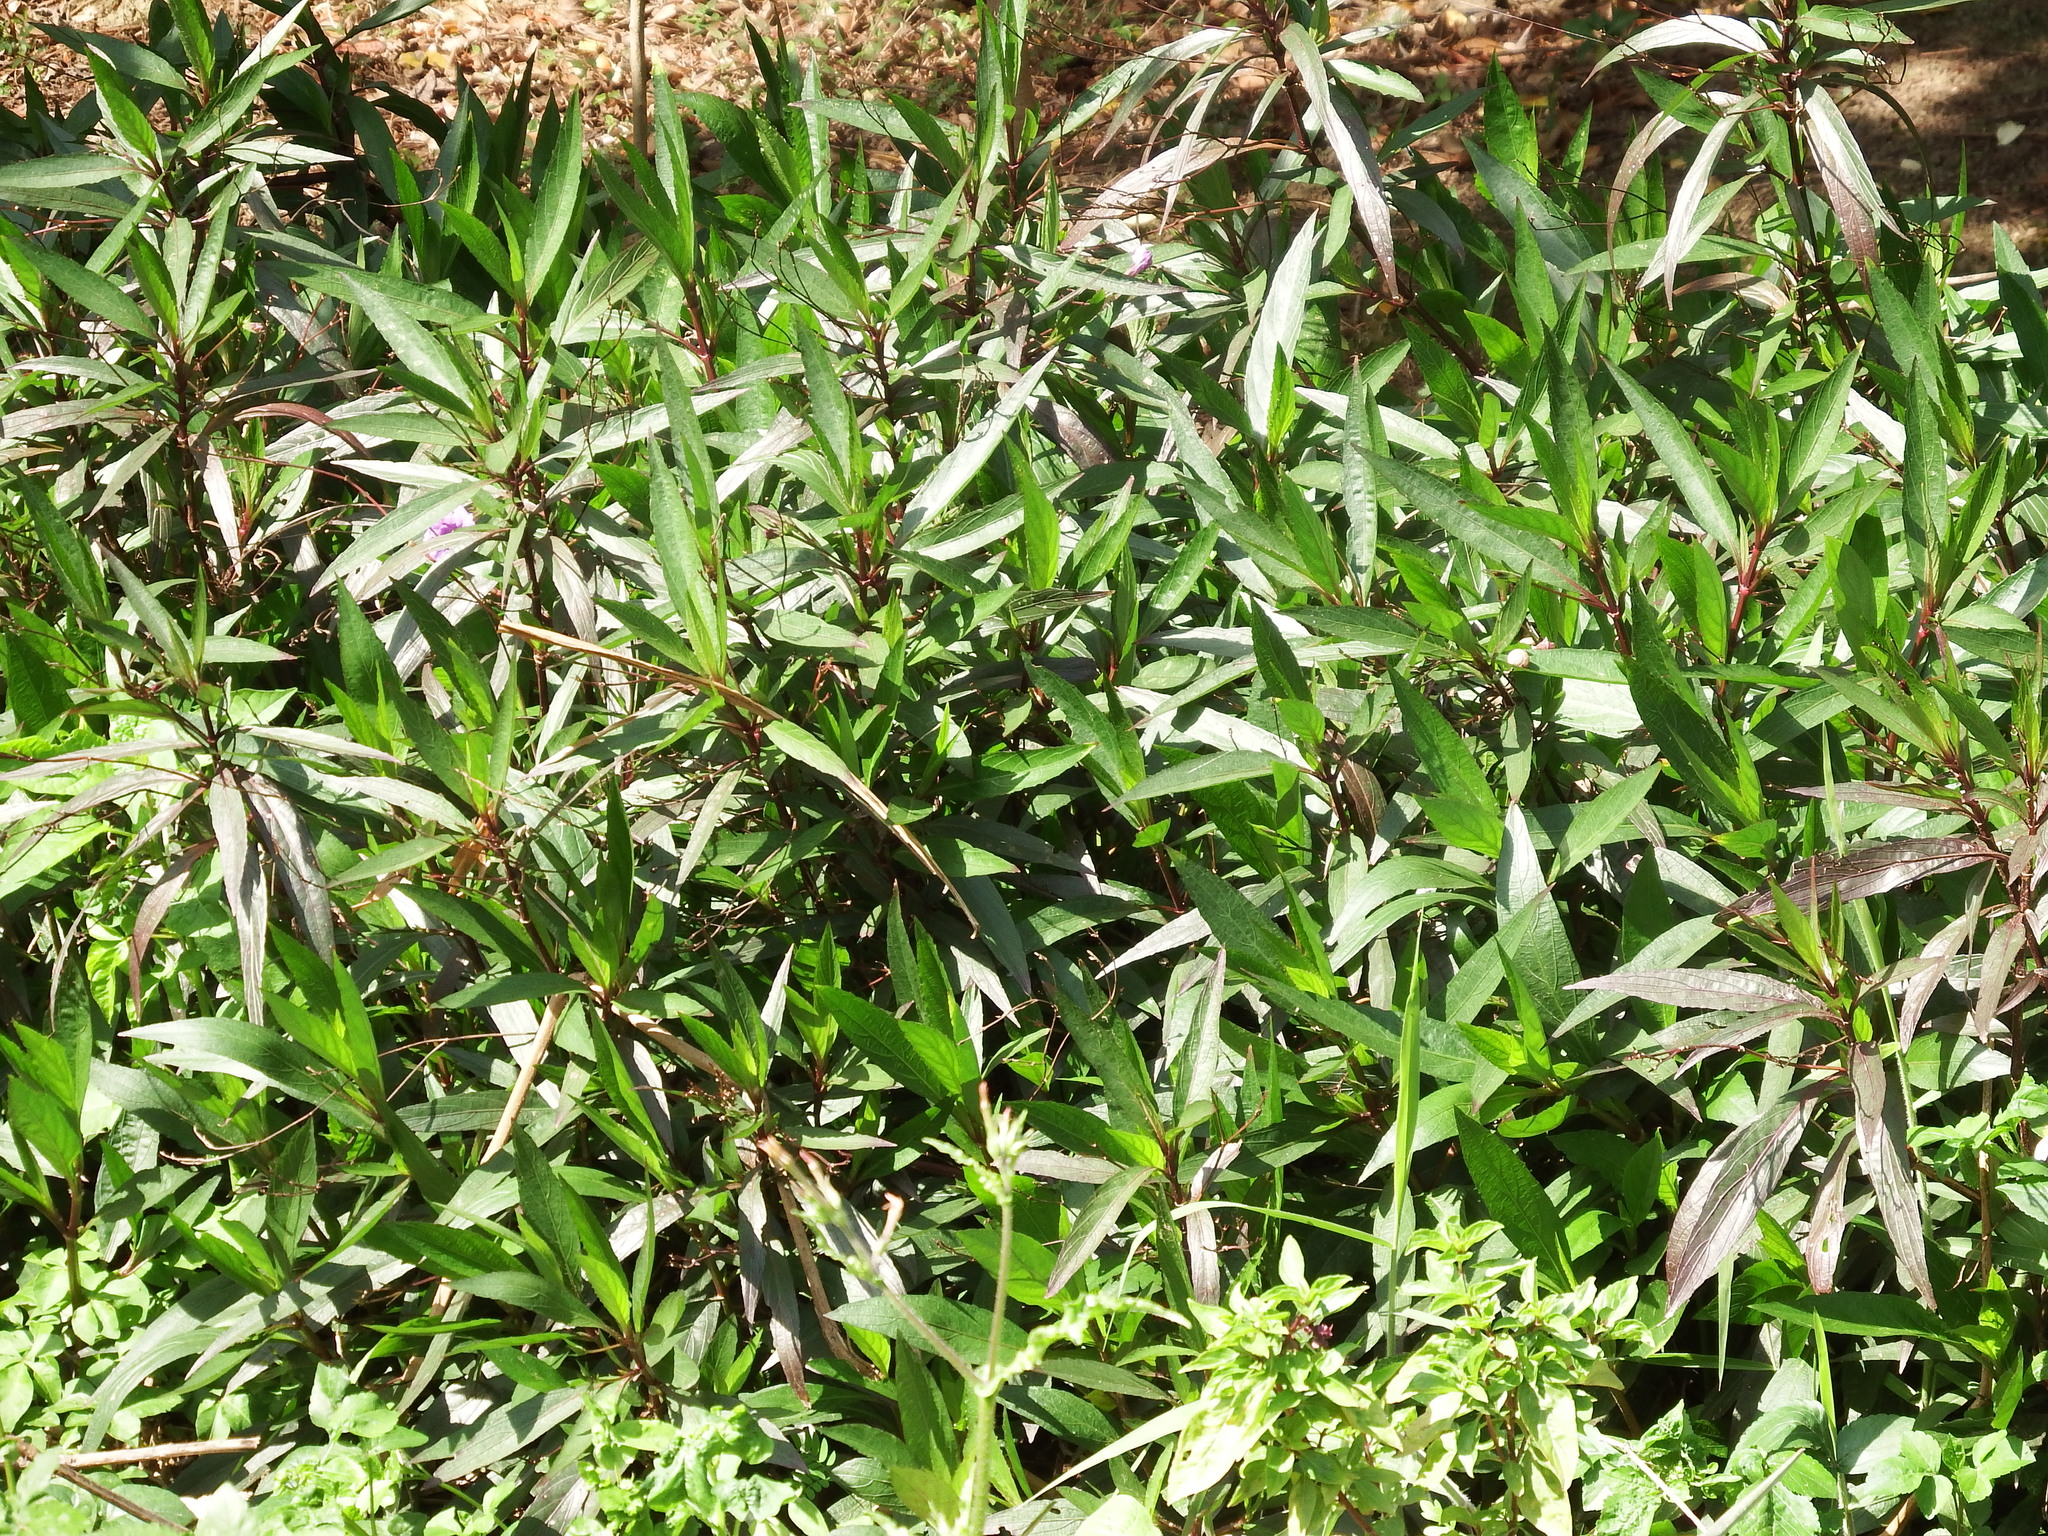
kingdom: Plantae
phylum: Tracheophyta
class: Magnoliopsida
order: Lamiales
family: Acanthaceae
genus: Ruellia
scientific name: Ruellia simplex
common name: Softseed wild petunia
